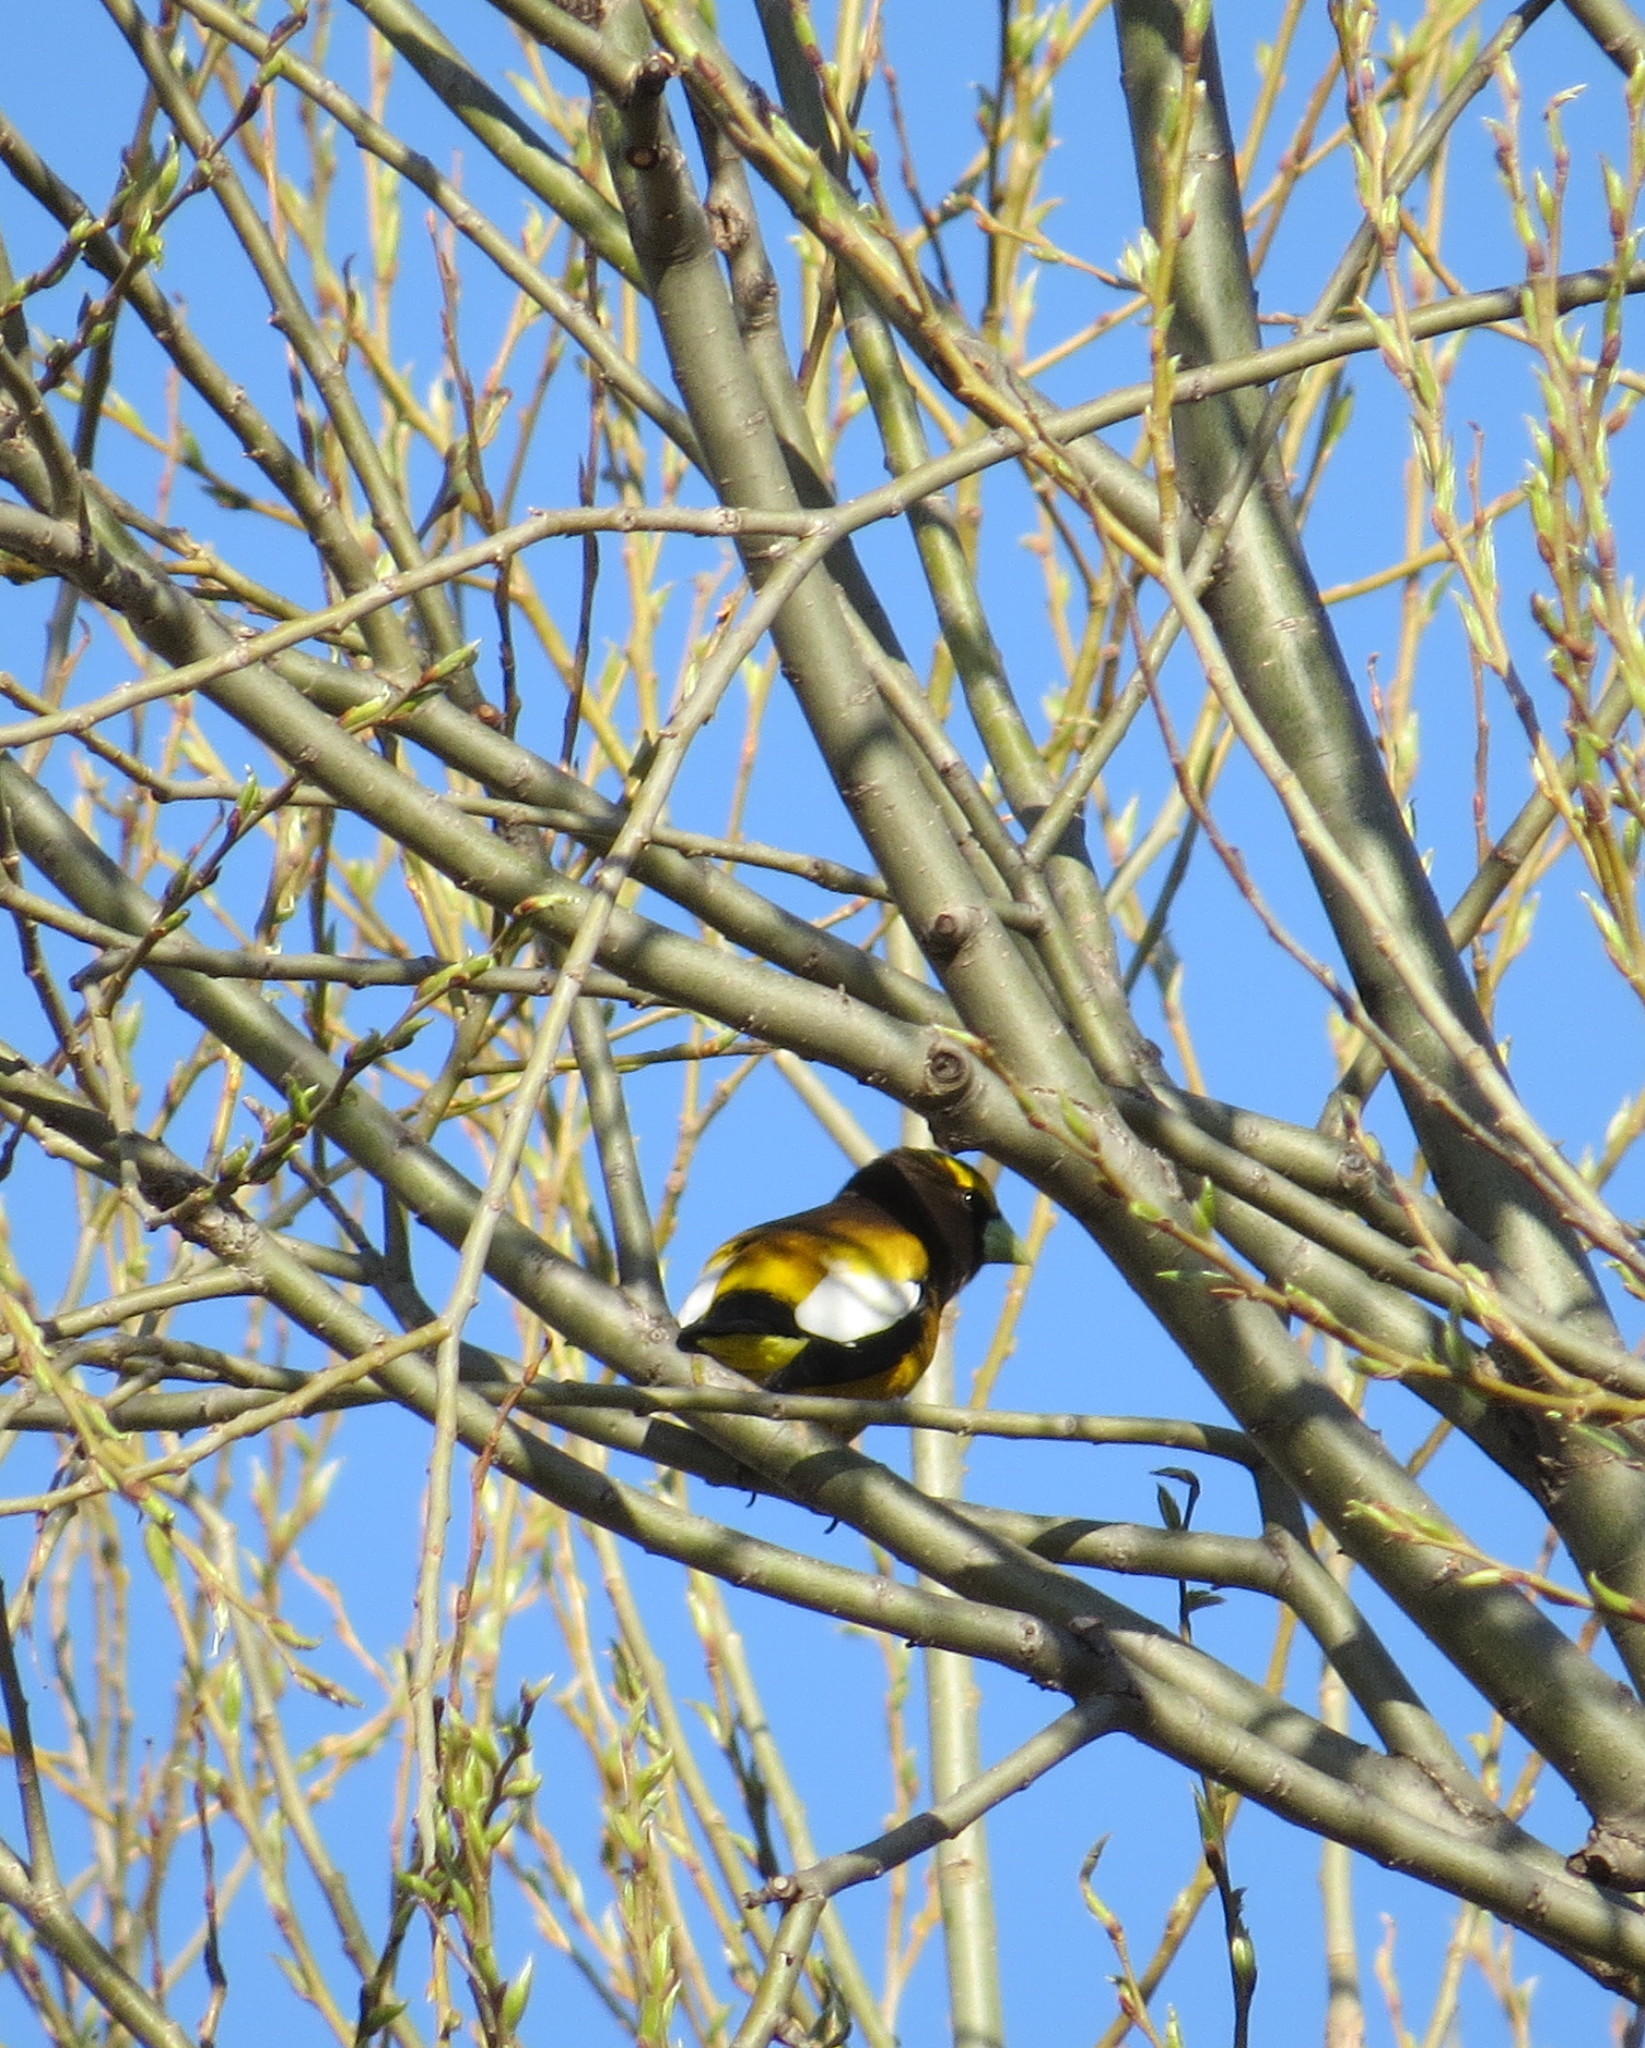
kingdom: Animalia
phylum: Chordata
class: Aves
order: Passeriformes
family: Fringillidae
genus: Hesperiphona
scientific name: Hesperiphona vespertina
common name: Evening grosbeak
